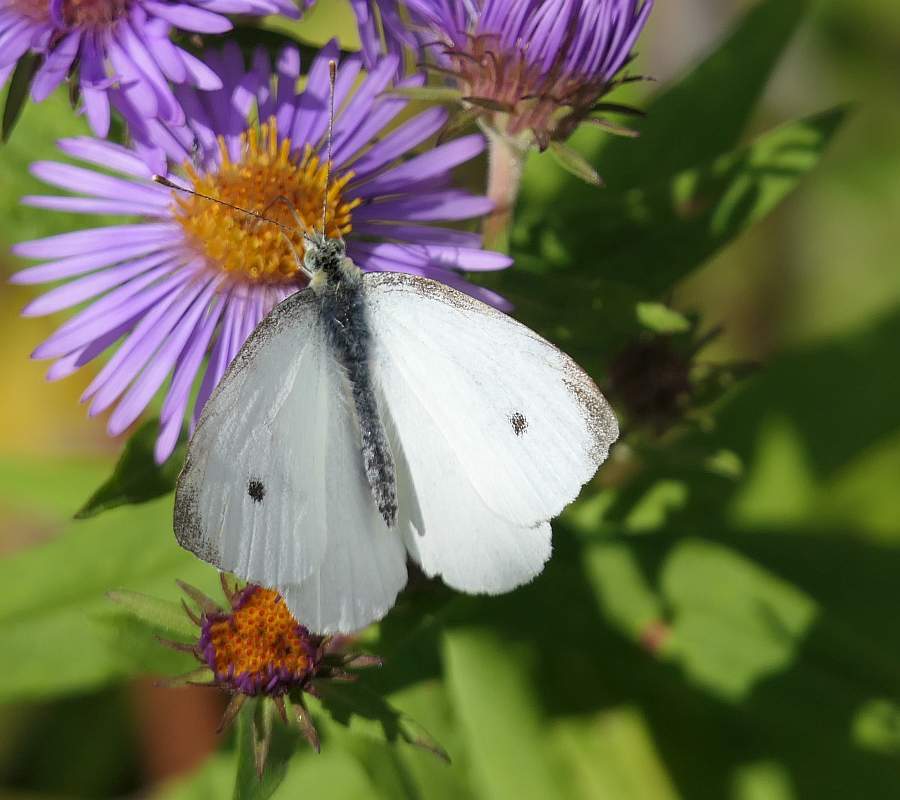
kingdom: Animalia
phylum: Arthropoda
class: Insecta
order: Lepidoptera
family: Pieridae
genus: Pieris
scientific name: Pieris rapae
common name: Small white
